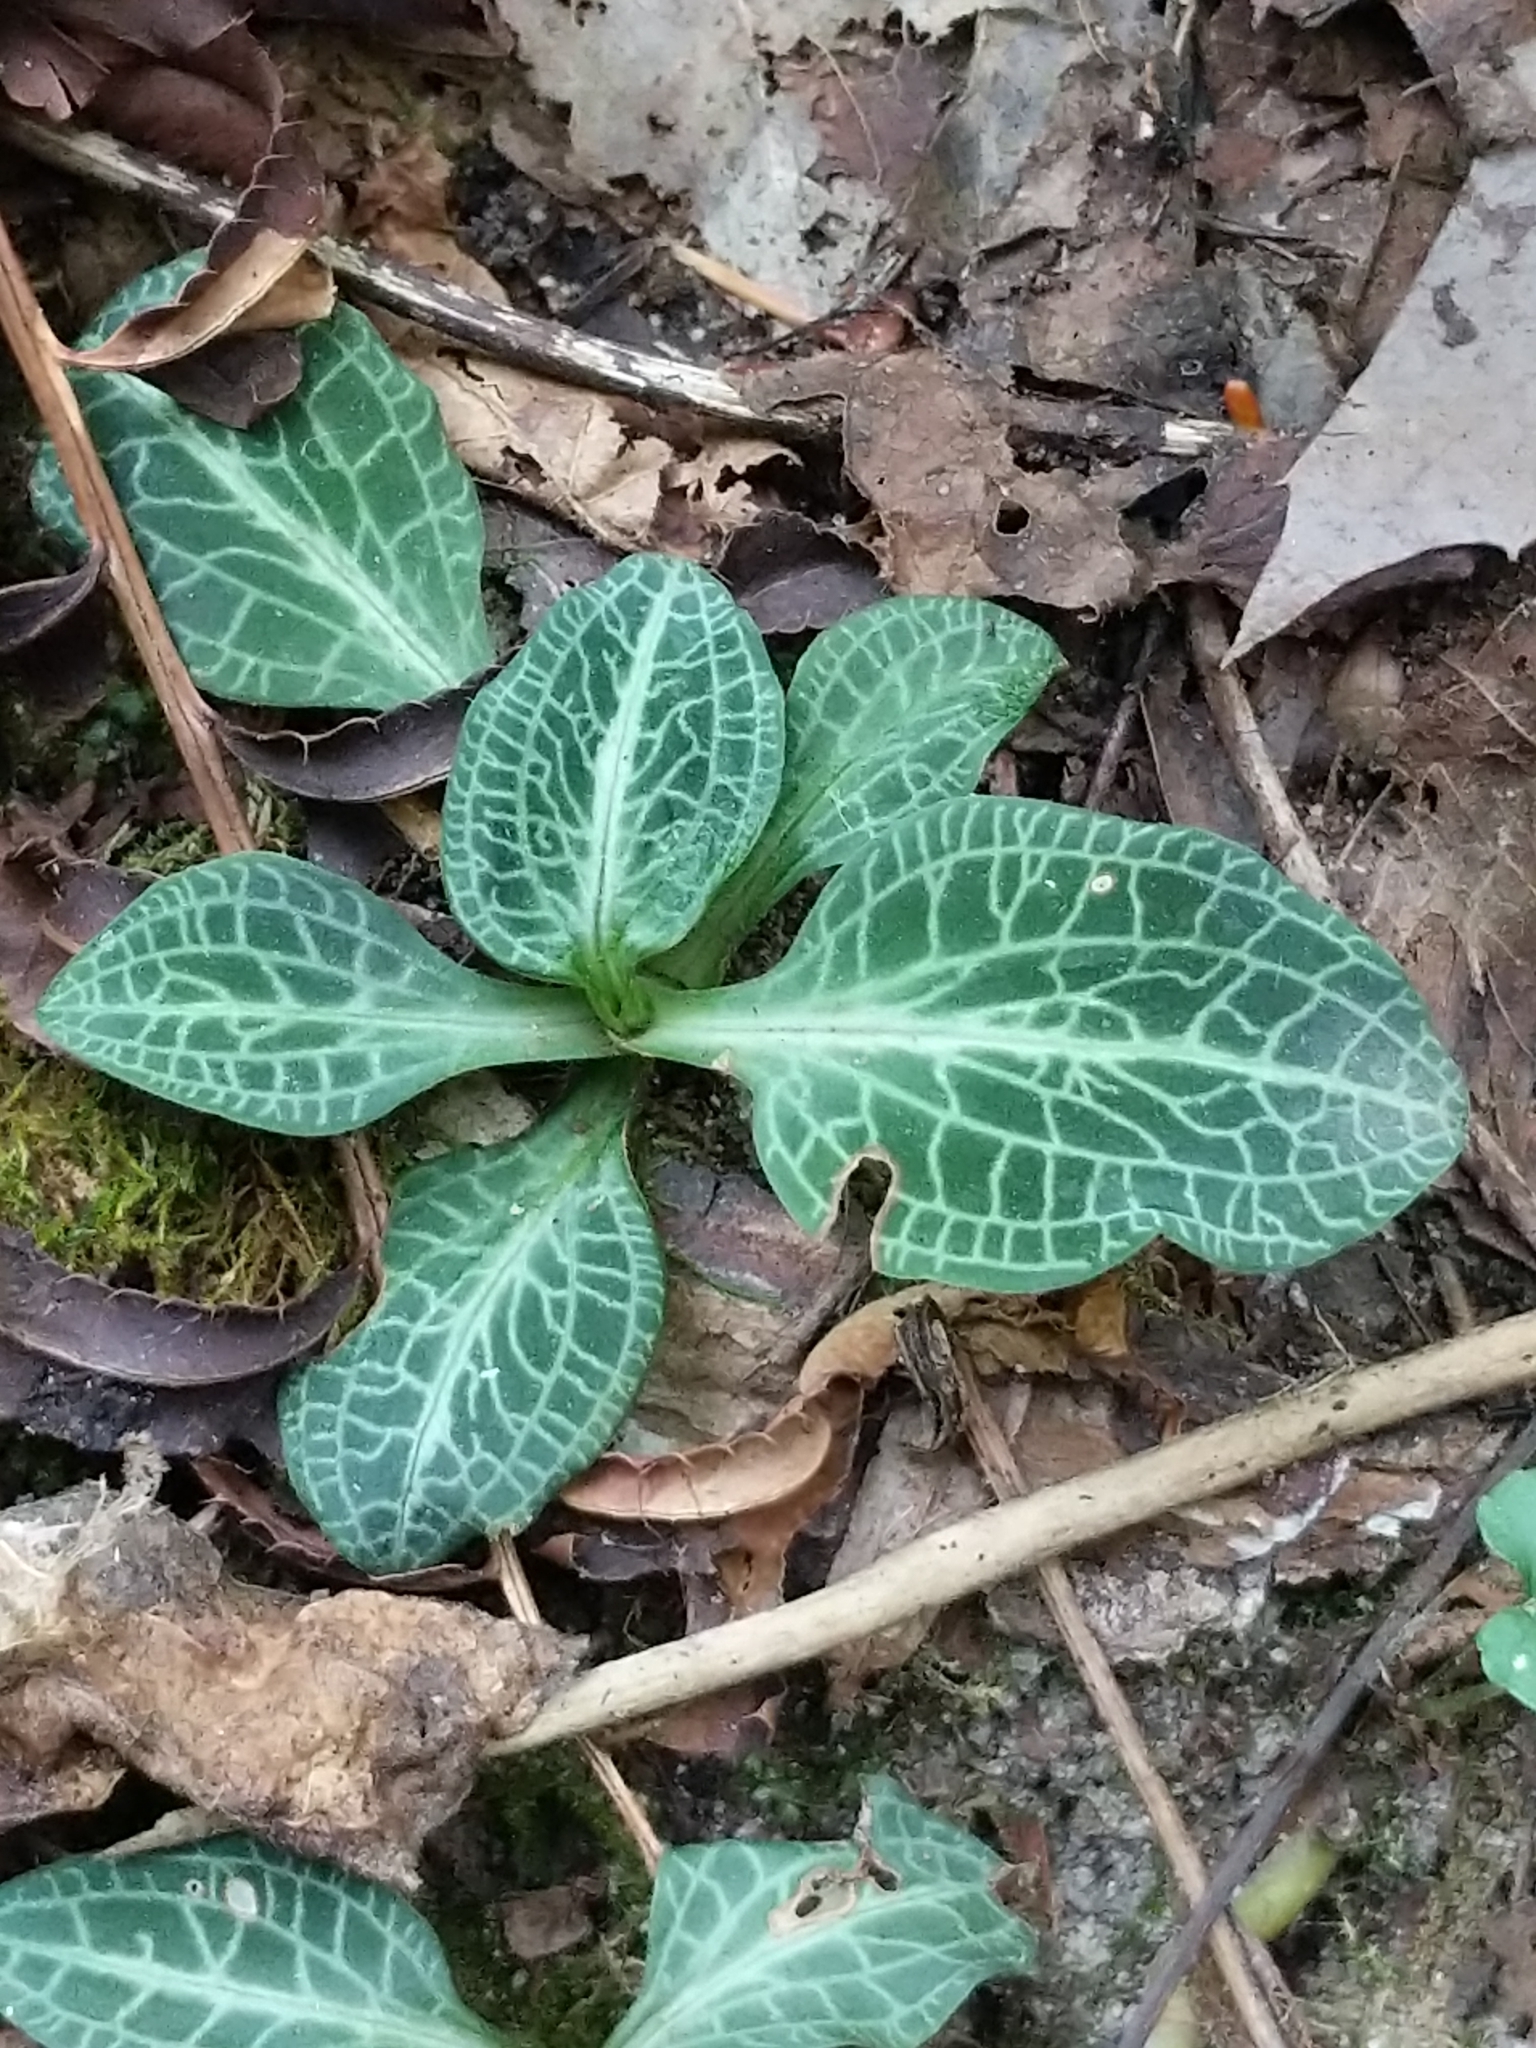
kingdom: Plantae
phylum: Tracheophyta
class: Liliopsida
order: Asparagales
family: Orchidaceae
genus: Goodyera
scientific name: Goodyera pubescens
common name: Downy rattlesnake-plantain
